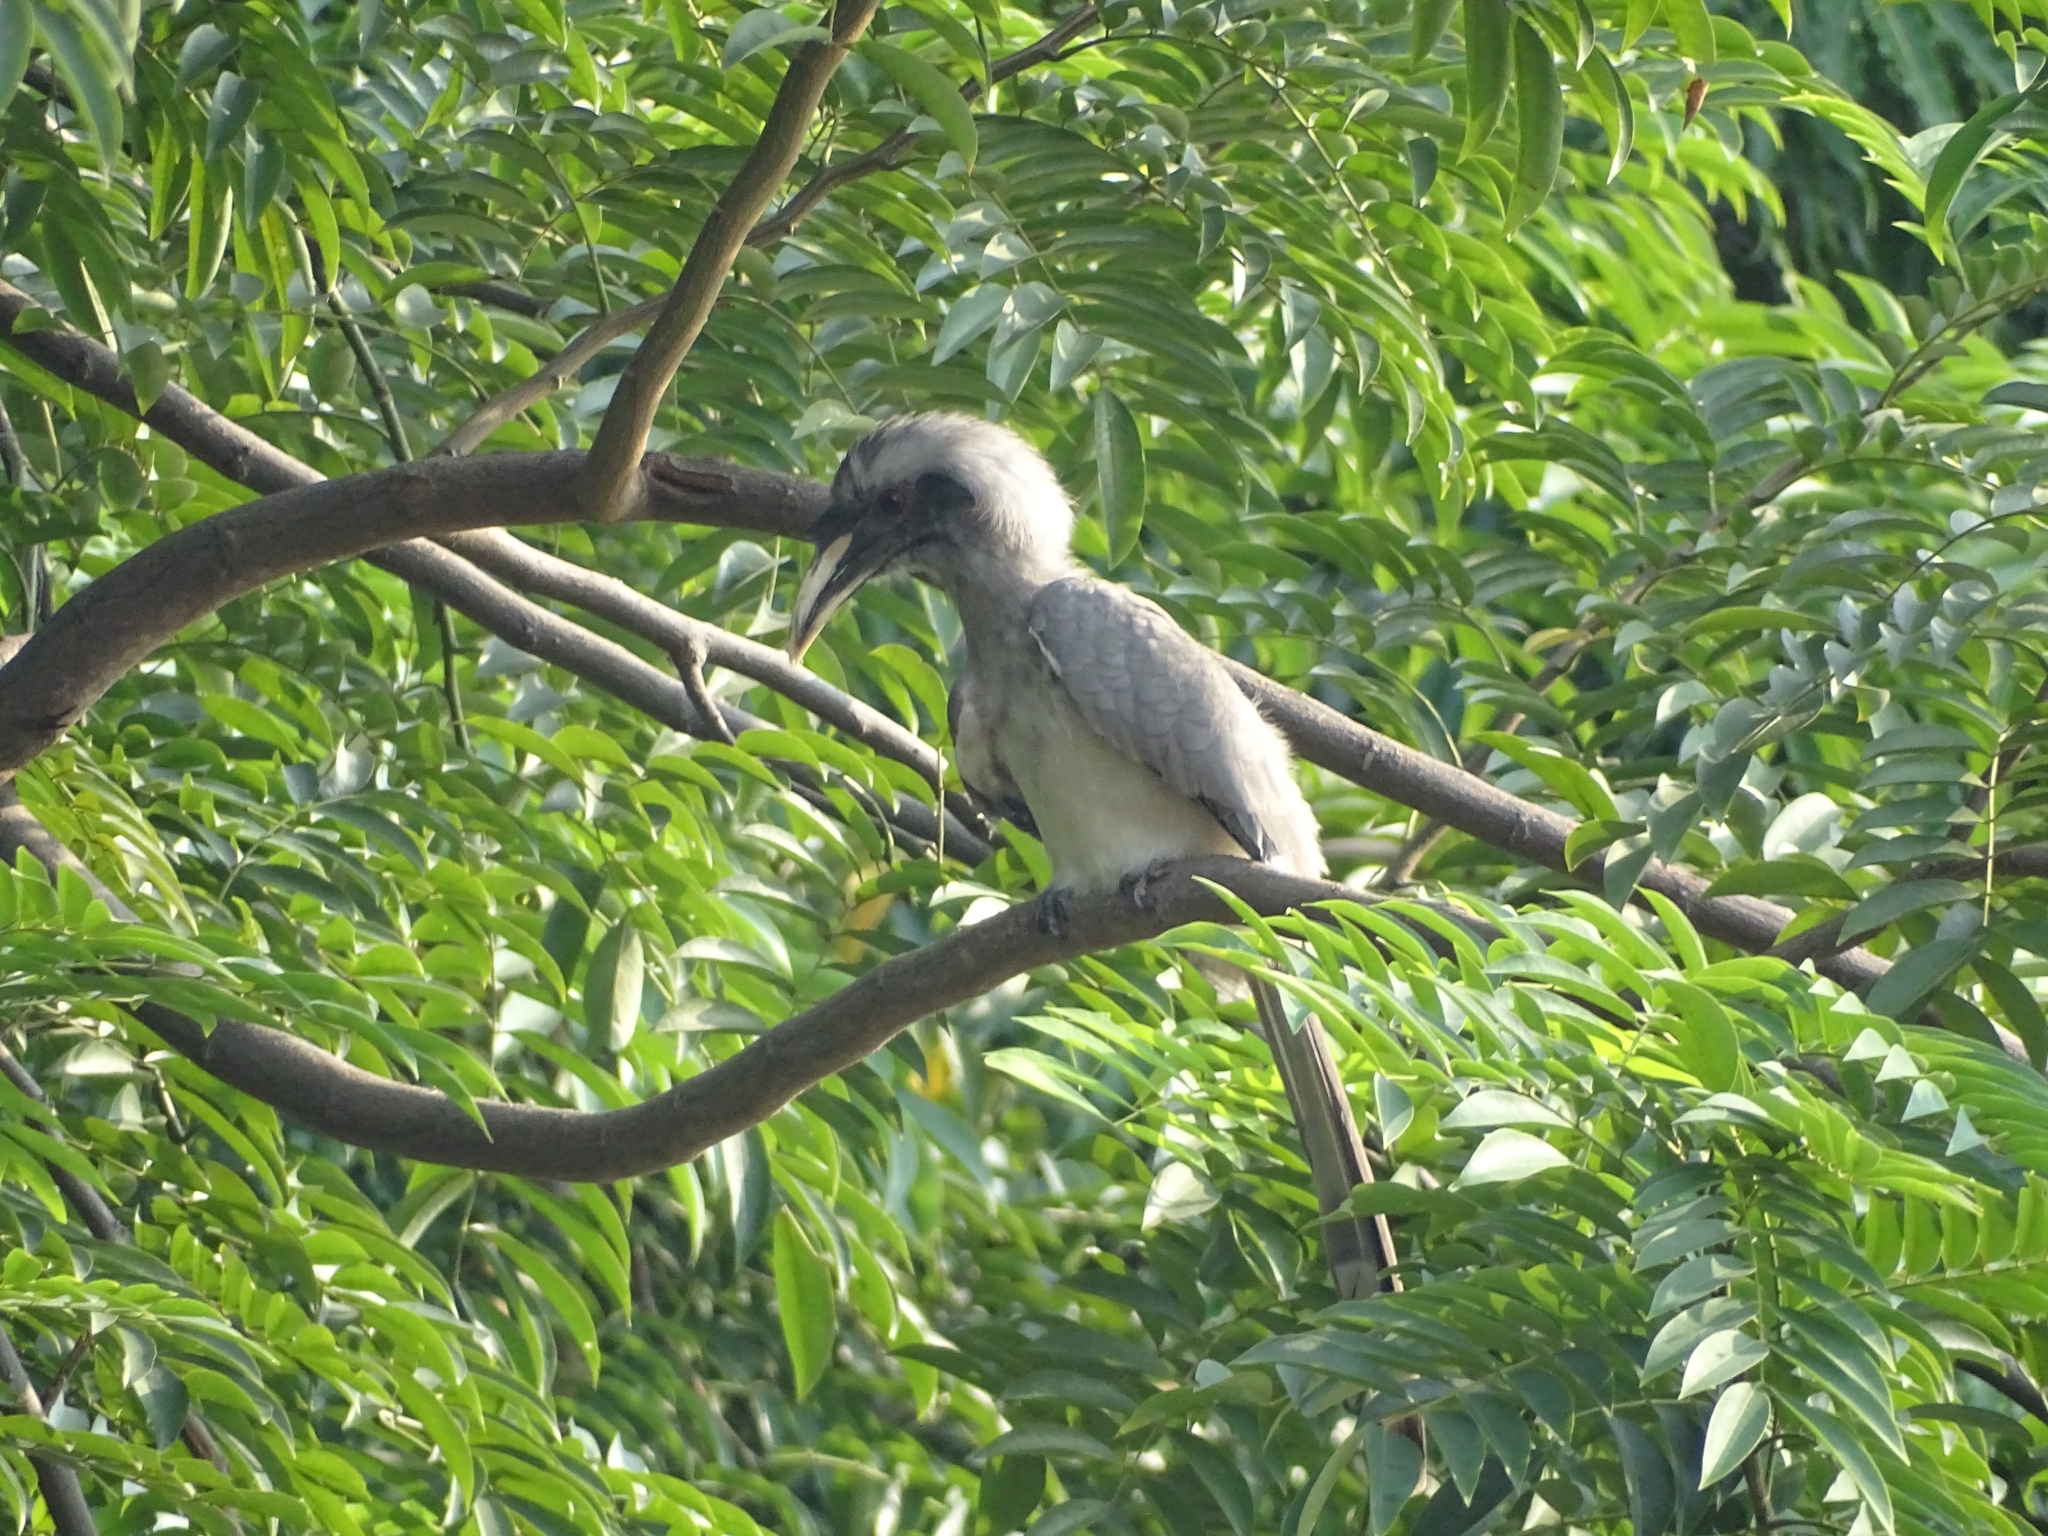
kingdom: Animalia
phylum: Chordata
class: Aves
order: Bucerotiformes
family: Bucerotidae
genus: Ocyceros
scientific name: Ocyceros birostris
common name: Indian grey hornbill
